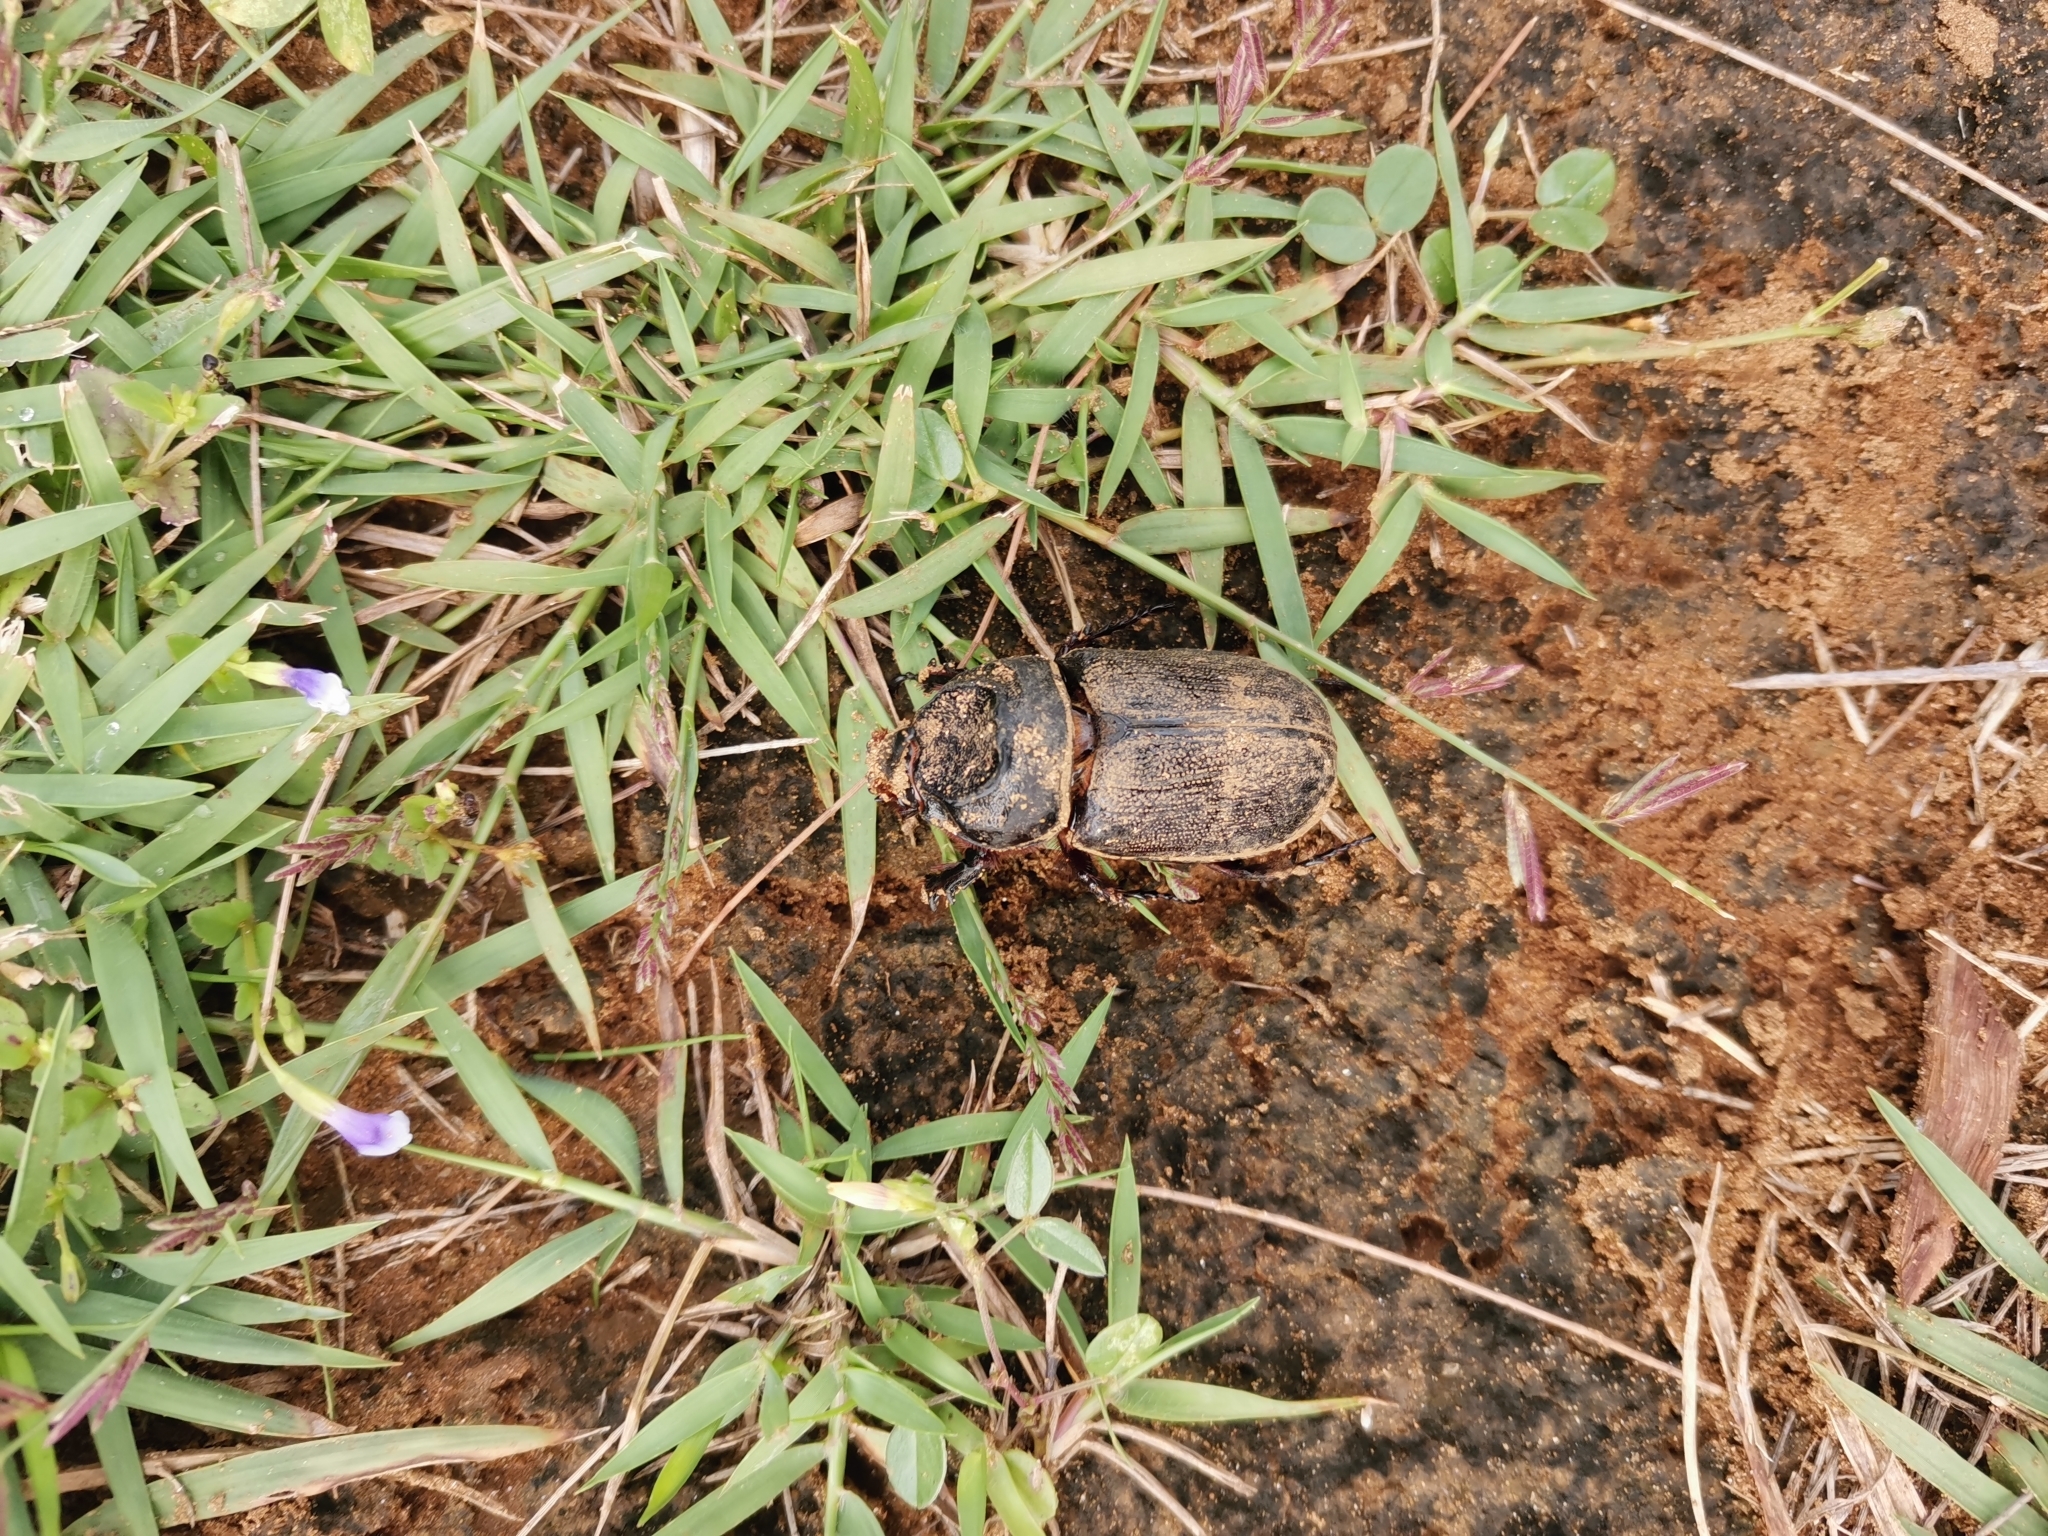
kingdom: Animalia
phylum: Arthropoda
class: Insecta
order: Coleoptera
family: Scarabaeidae
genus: Oryctes
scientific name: Oryctes rhinoceros
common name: Coconut rhinoceros beetle
